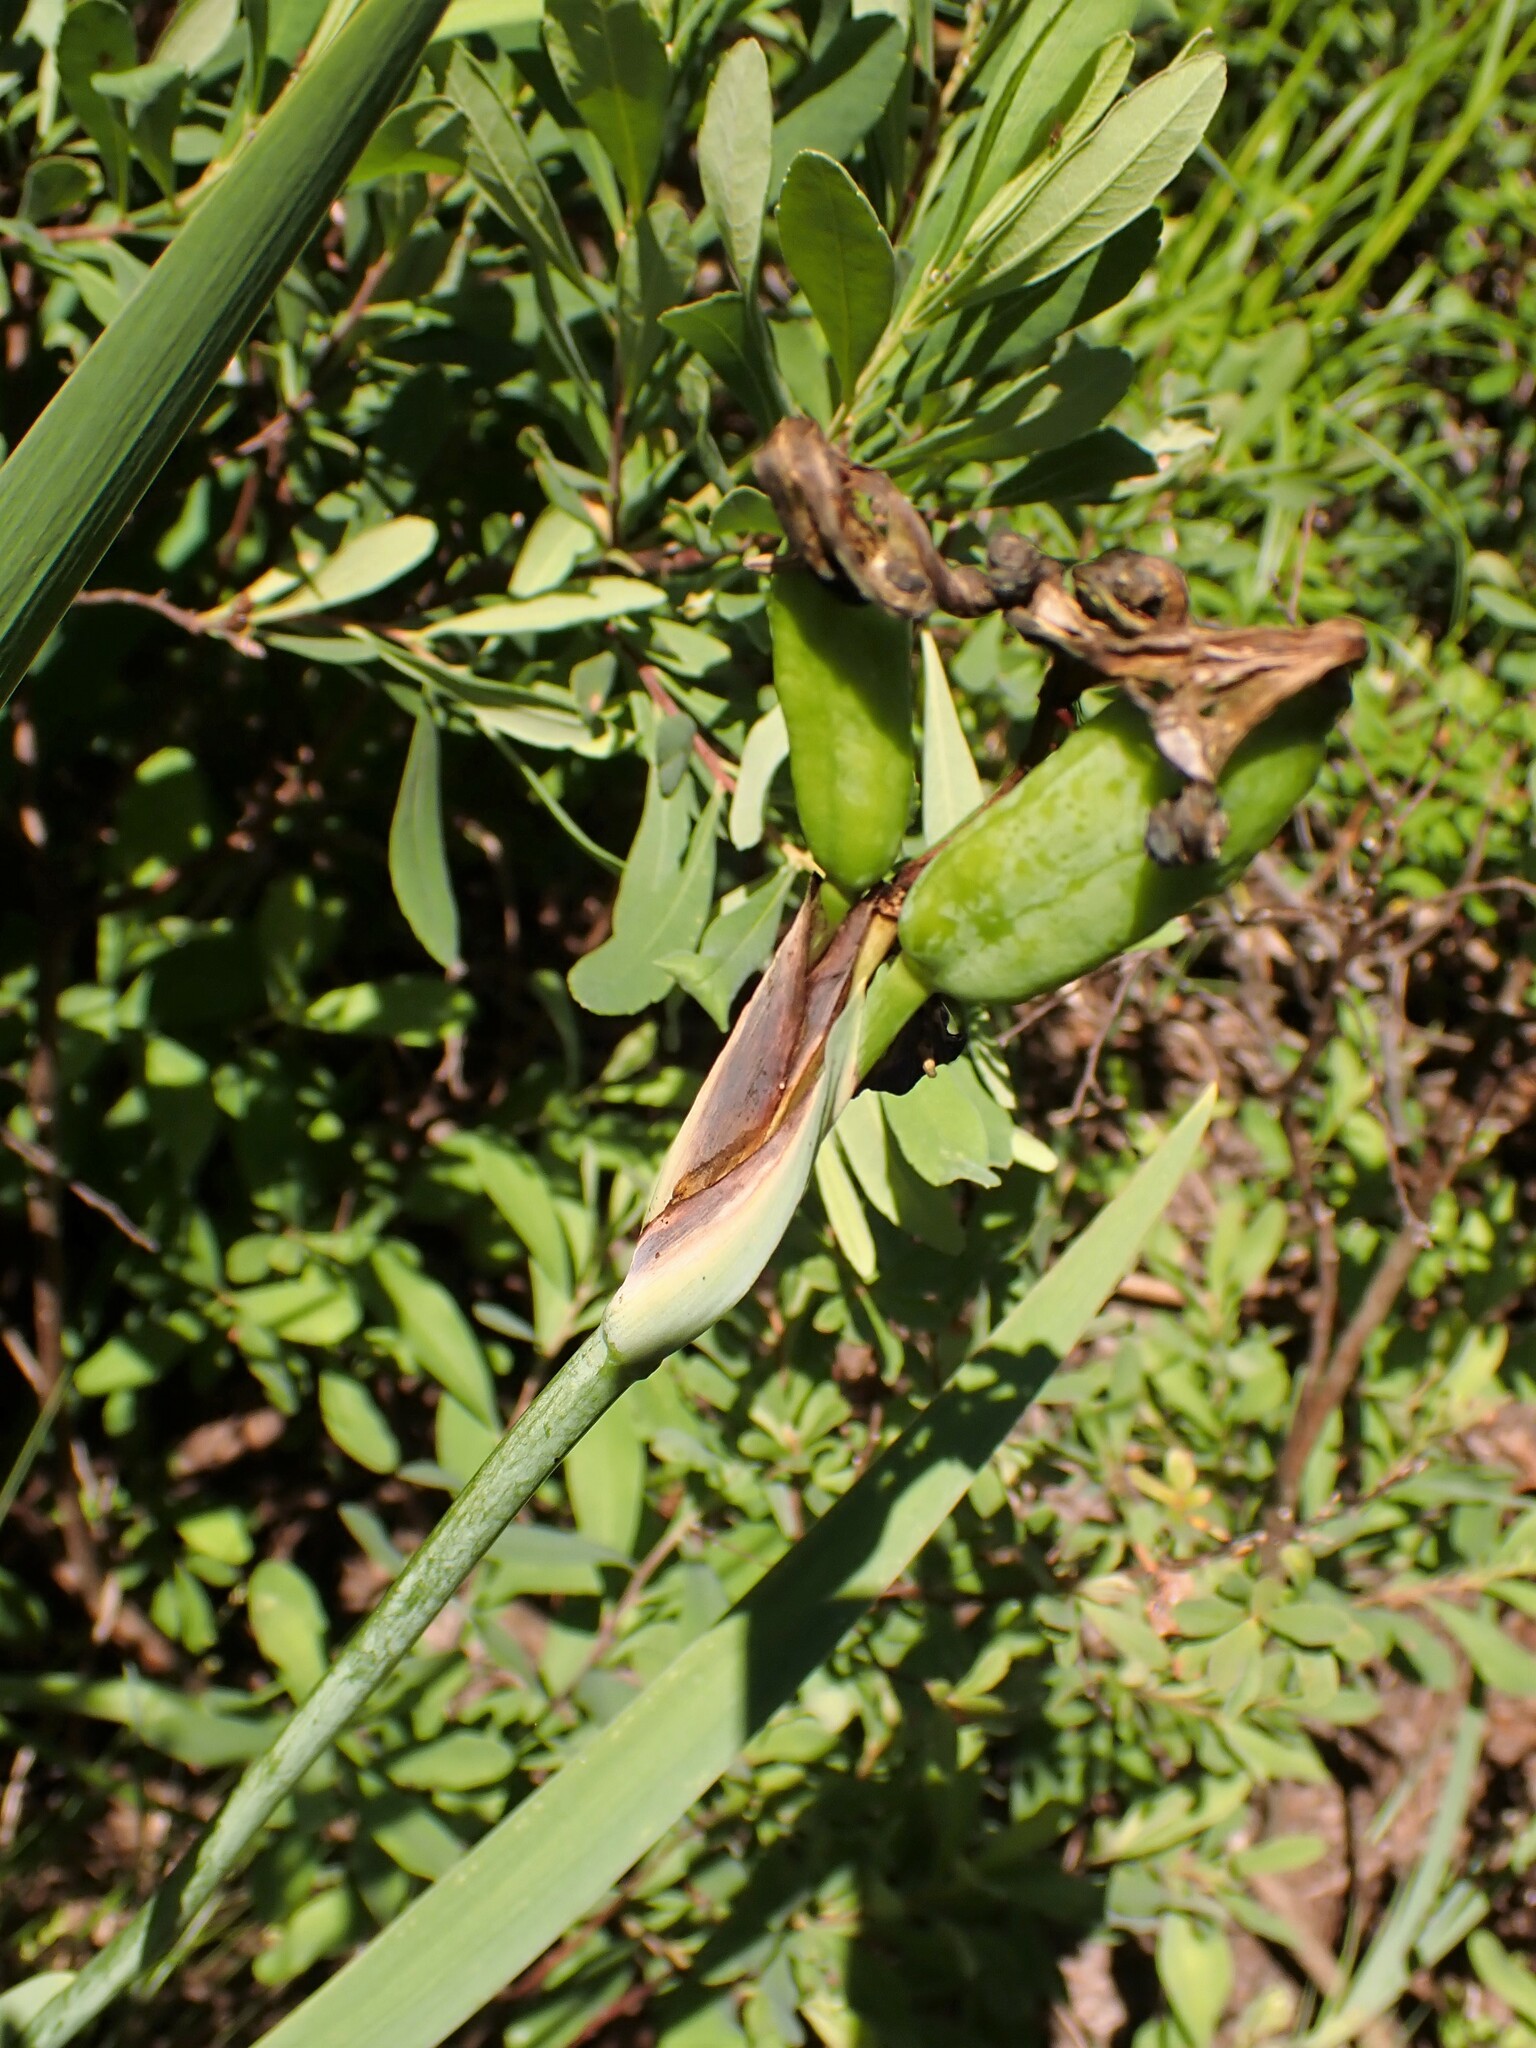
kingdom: Plantae
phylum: Tracheophyta
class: Liliopsida
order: Asparagales
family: Iridaceae
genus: Iris
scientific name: Iris versicolor
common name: Purple iris
